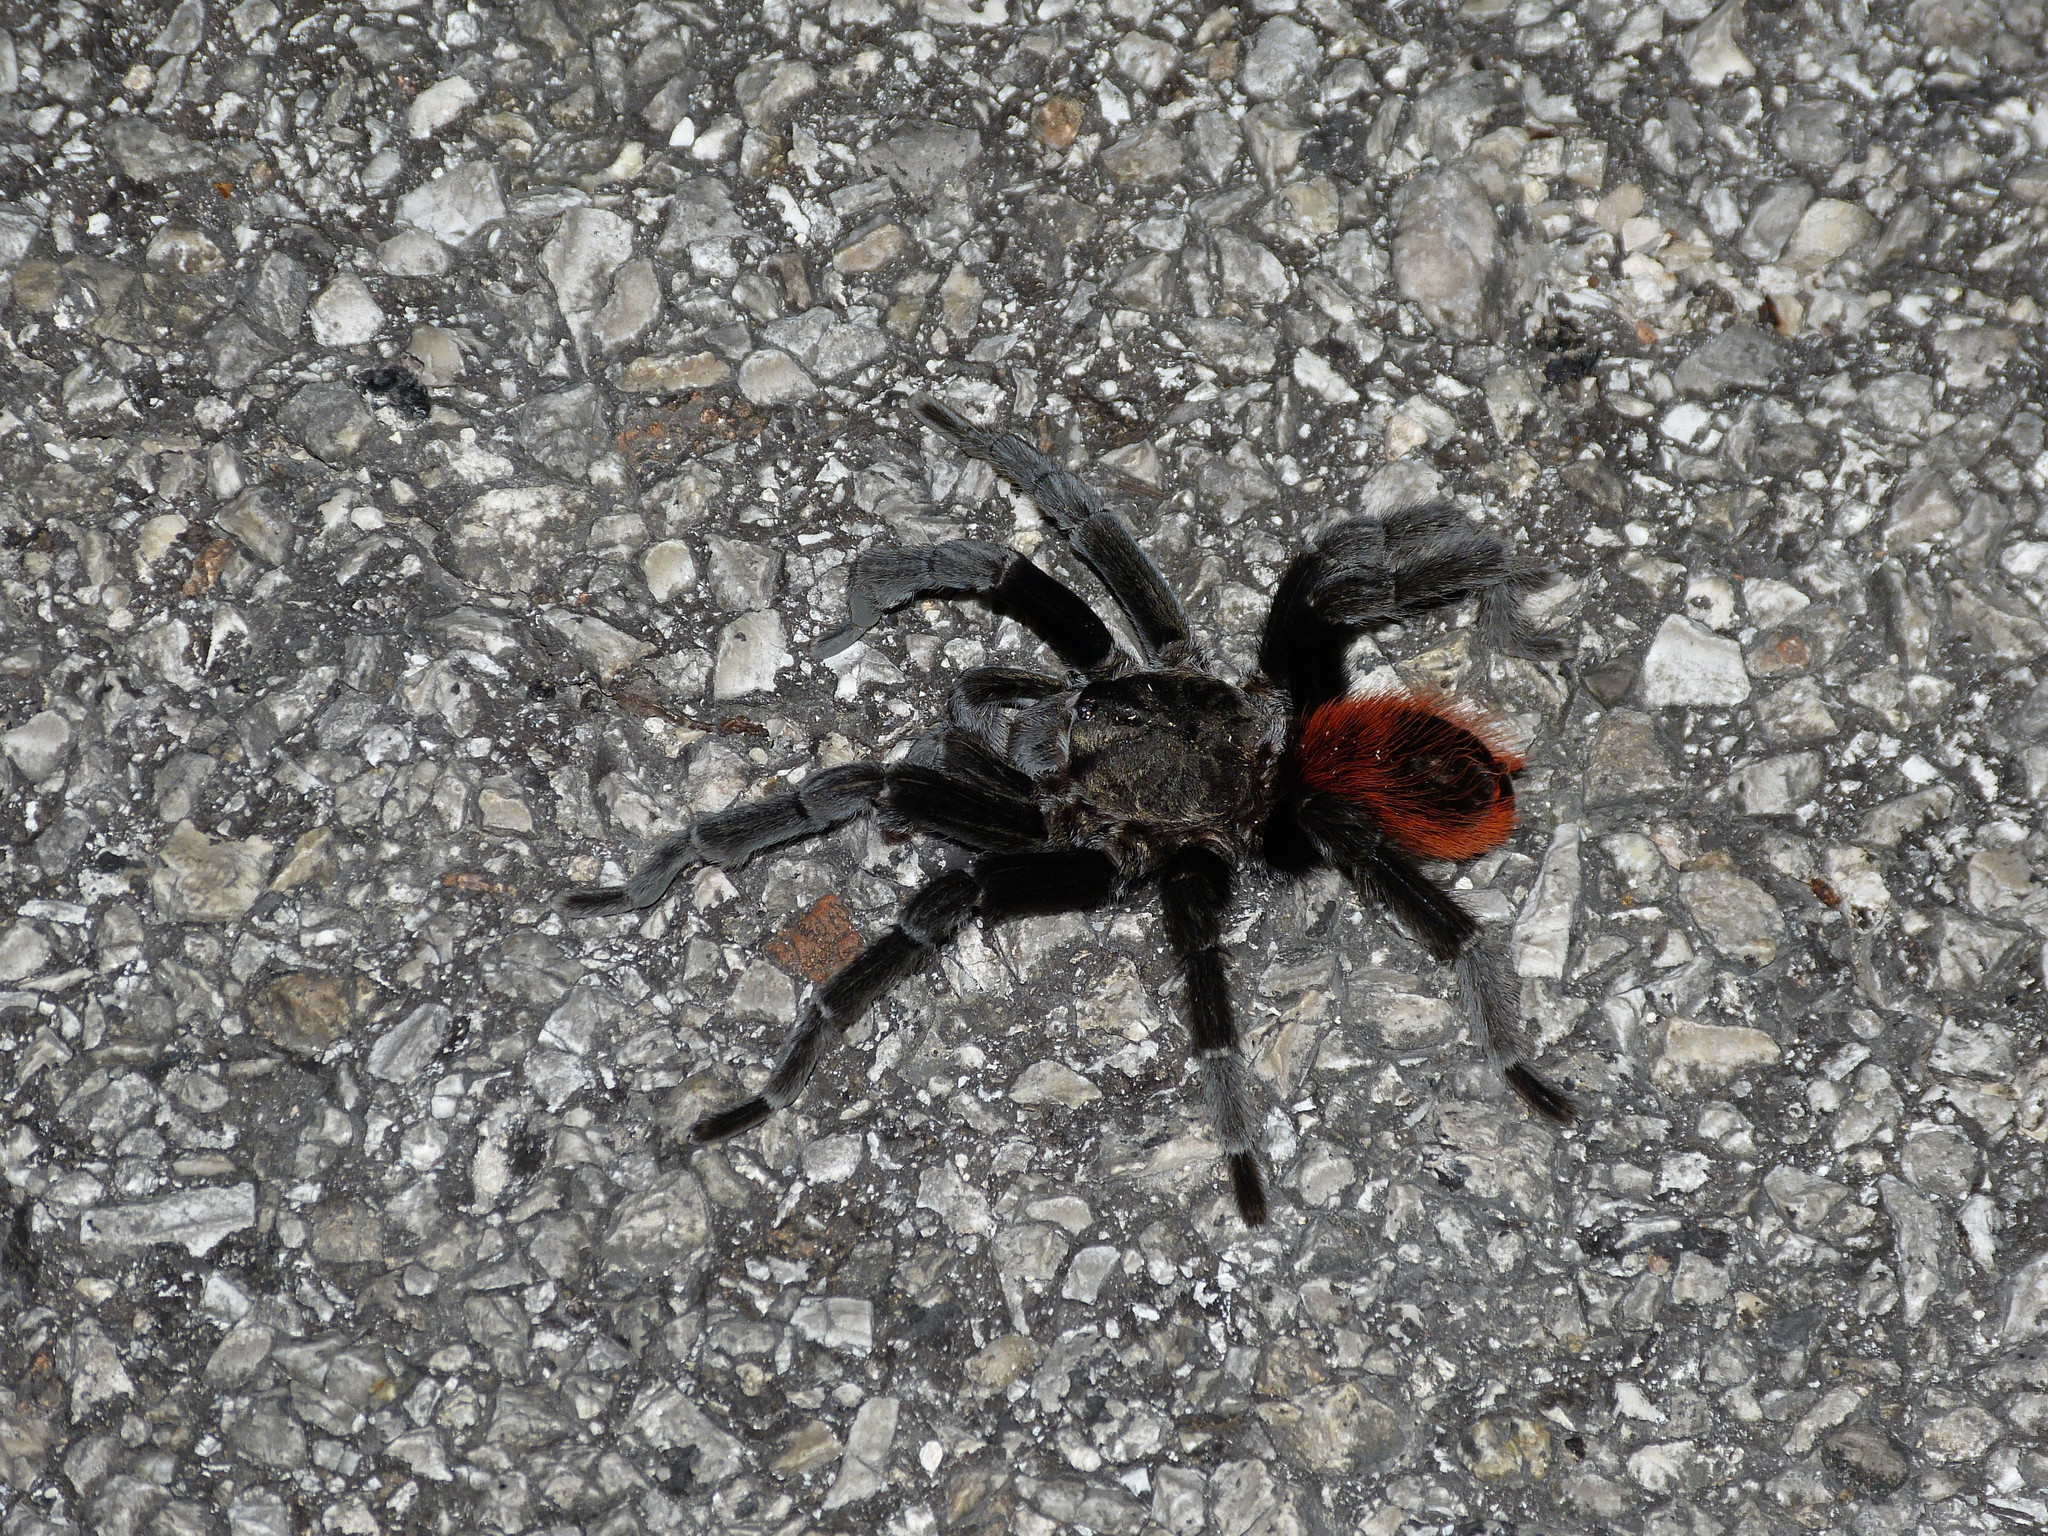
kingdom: Animalia
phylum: Arthropoda
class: Arachnida
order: Araneae
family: Theraphosidae
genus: Tliltocatl
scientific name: Tliltocatl vagans
